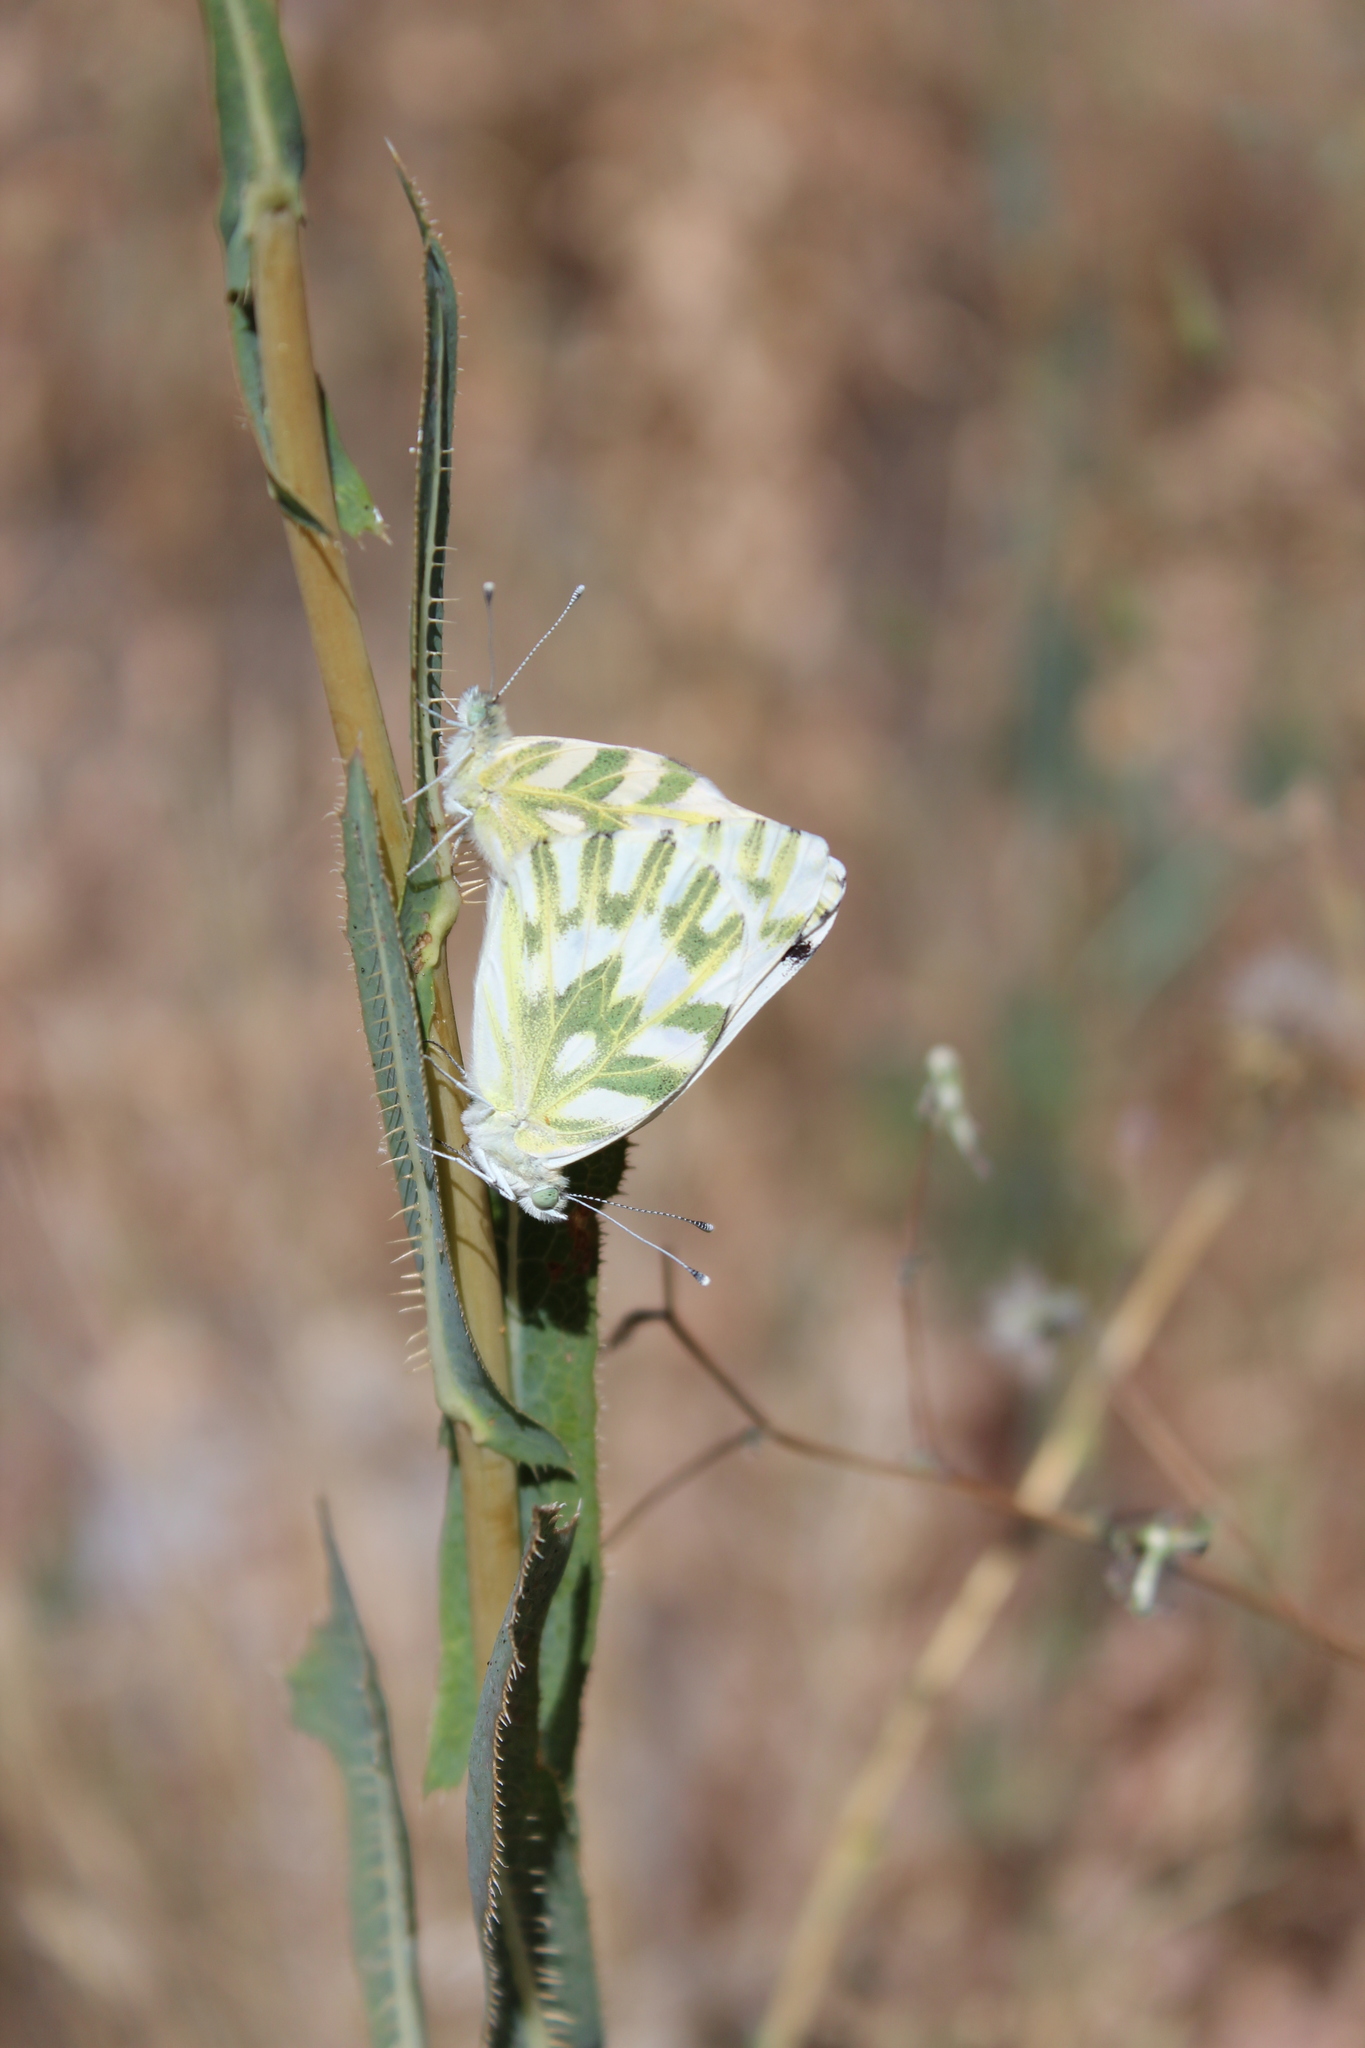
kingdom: Animalia
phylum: Arthropoda
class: Insecta
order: Lepidoptera
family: Pieridae
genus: Pontia
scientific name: Pontia beckerii
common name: Becker's white
